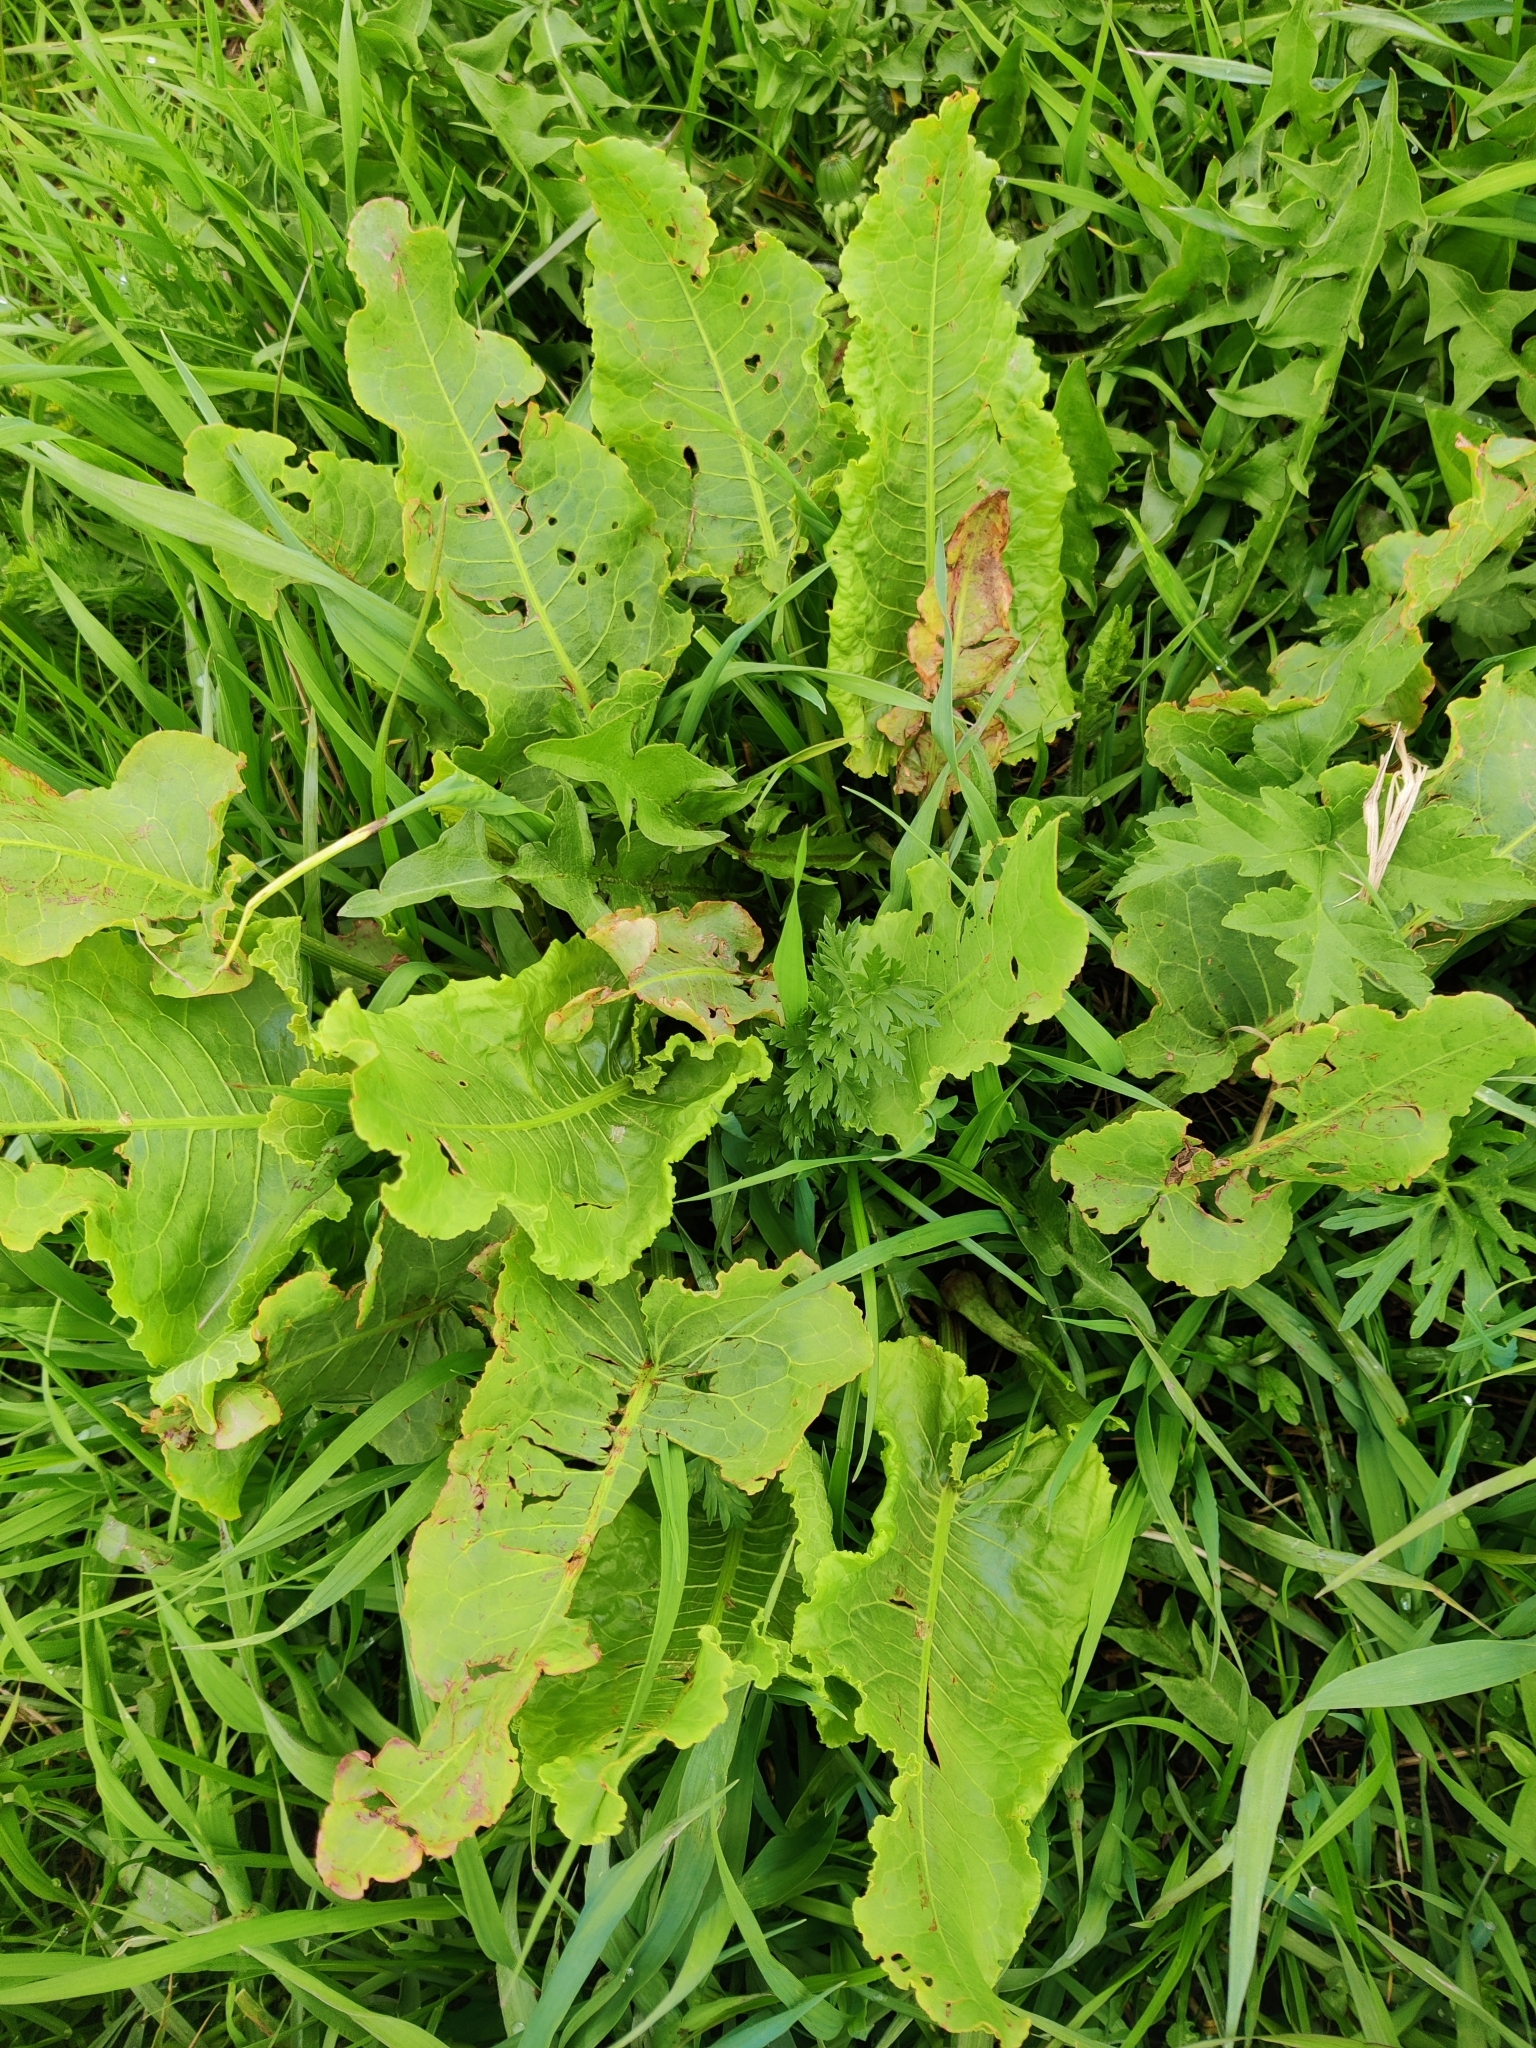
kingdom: Plantae
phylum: Tracheophyta
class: Magnoliopsida
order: Caryophyllales
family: Polygonaceae
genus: Rumex
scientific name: Rumex confertus
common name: Russian dock
